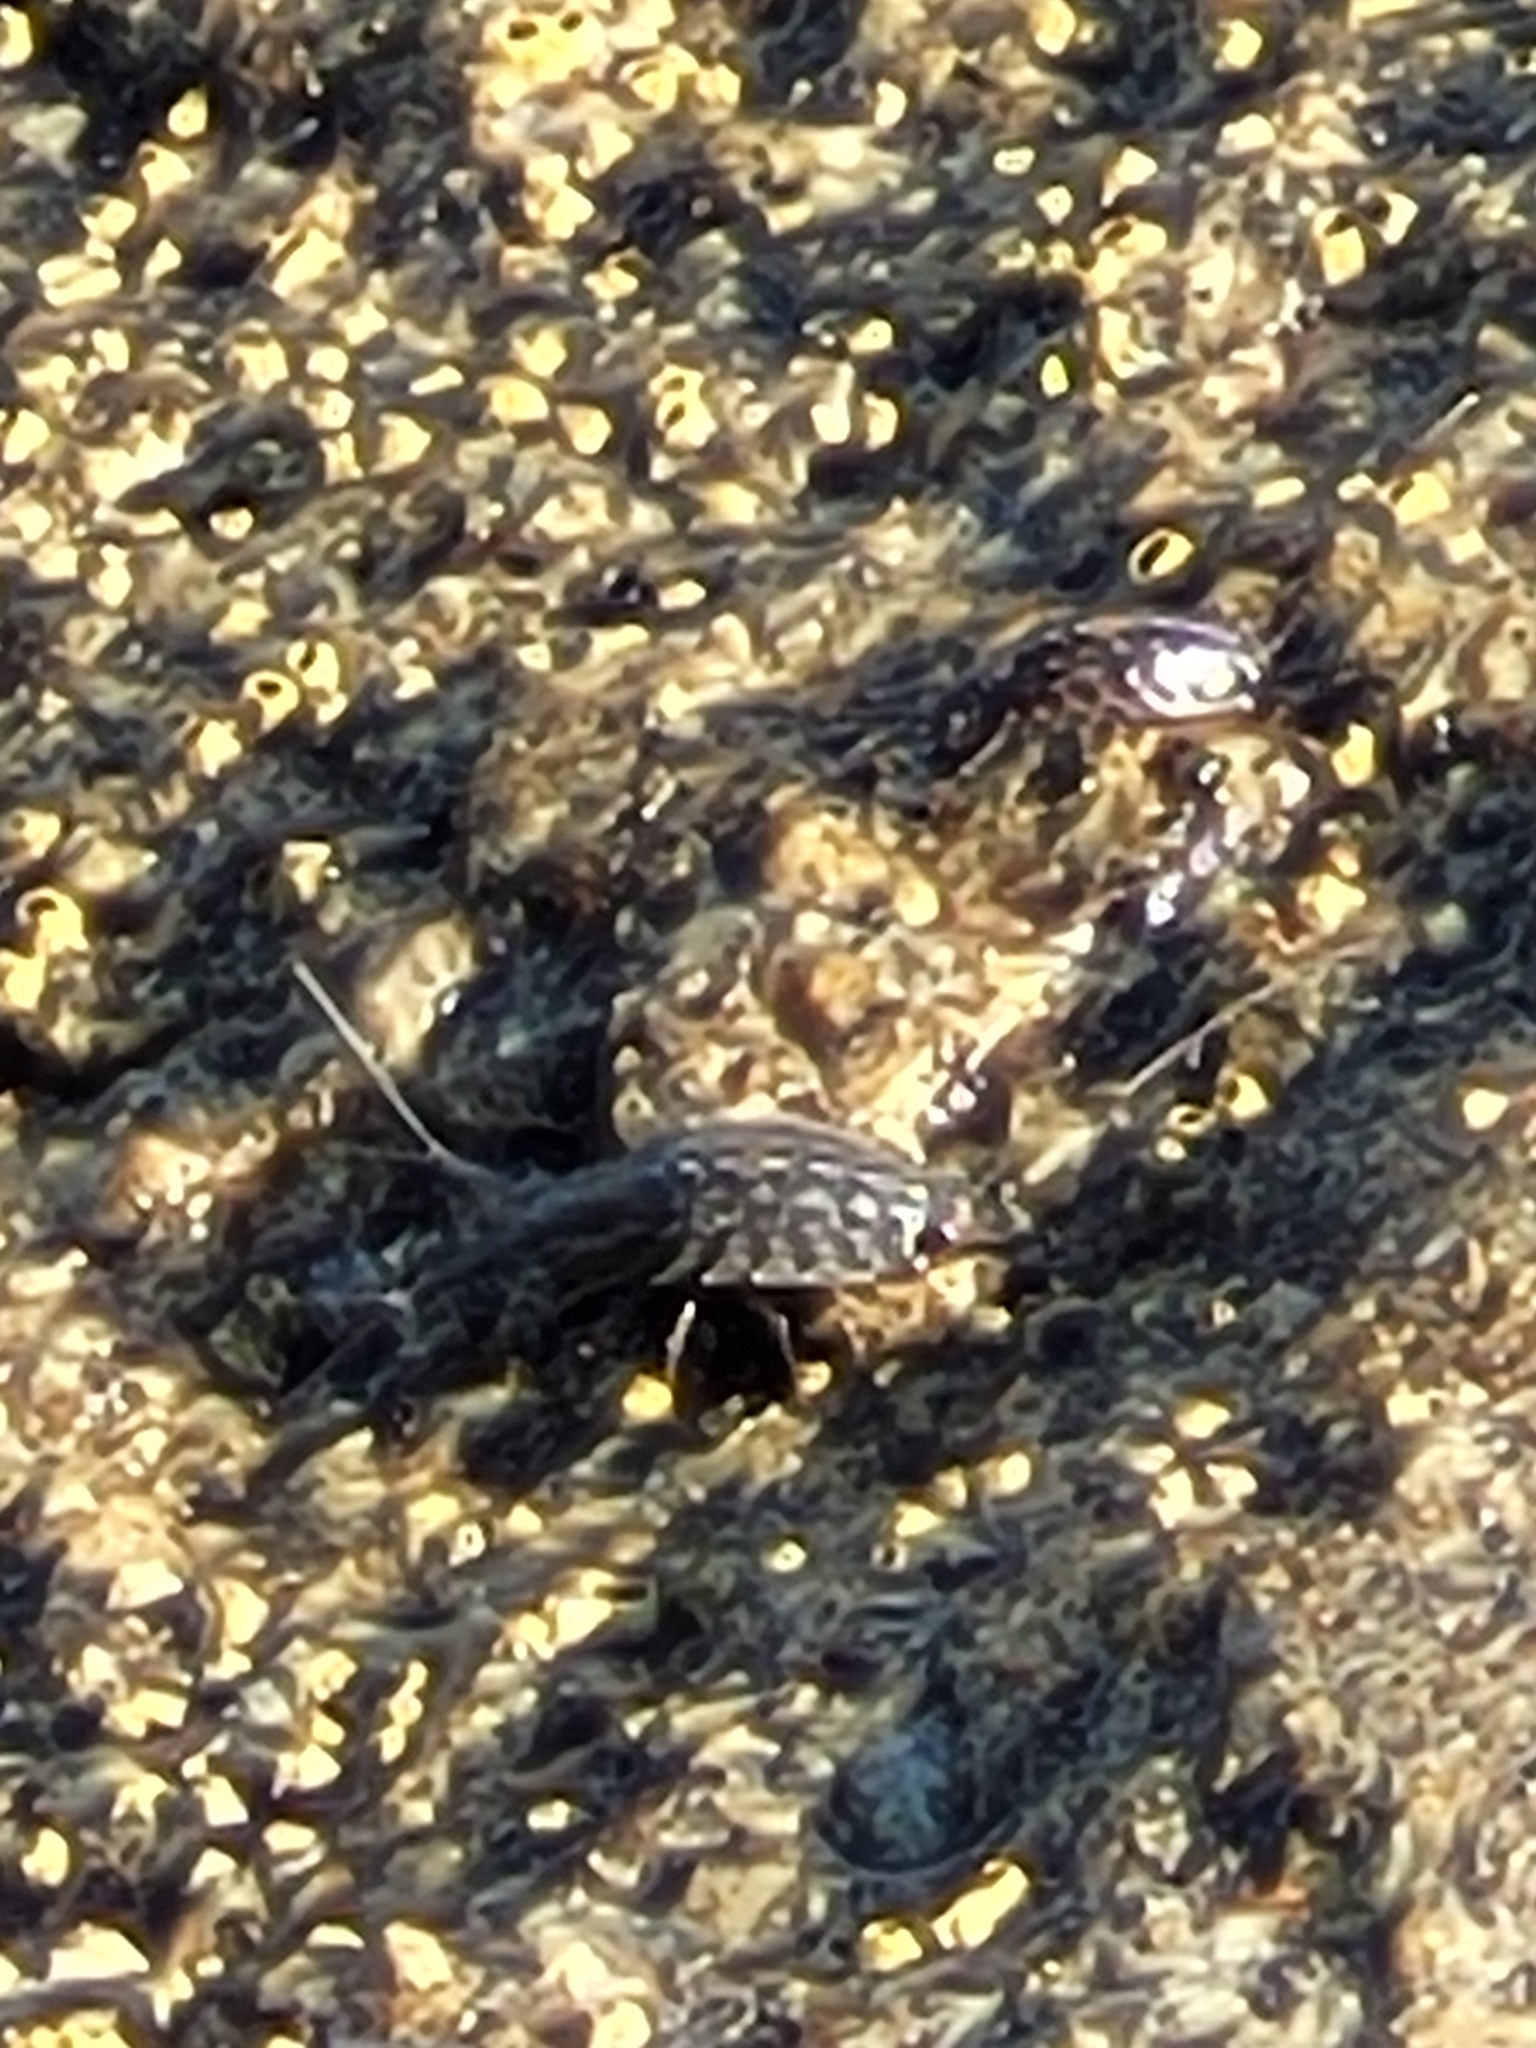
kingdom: Animalia
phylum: Arthropoda
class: Malacostraca
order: Isopoda
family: Ligiidae
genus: Ligia
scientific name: Ligia exotica
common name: Wharf roach
